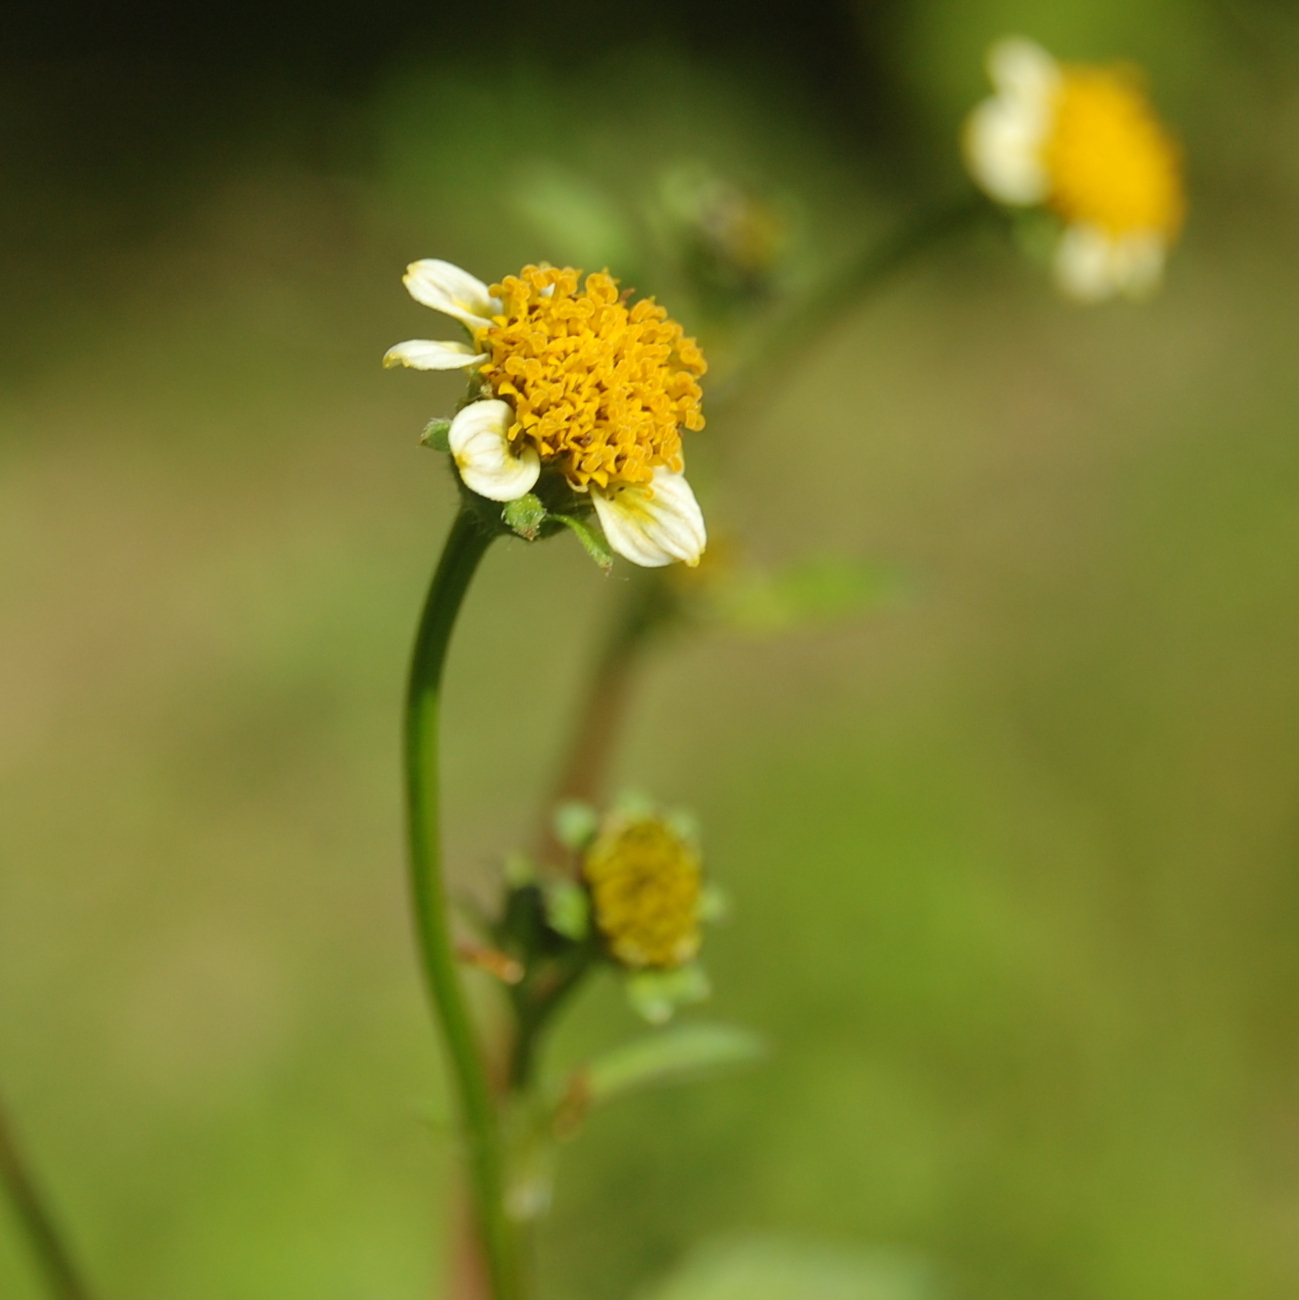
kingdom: Plantae
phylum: Tracheophyta
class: Magnoliopsida
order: Asterales
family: Asteraceae
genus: Bidens
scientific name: Bidens pilosa
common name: Black-jack
